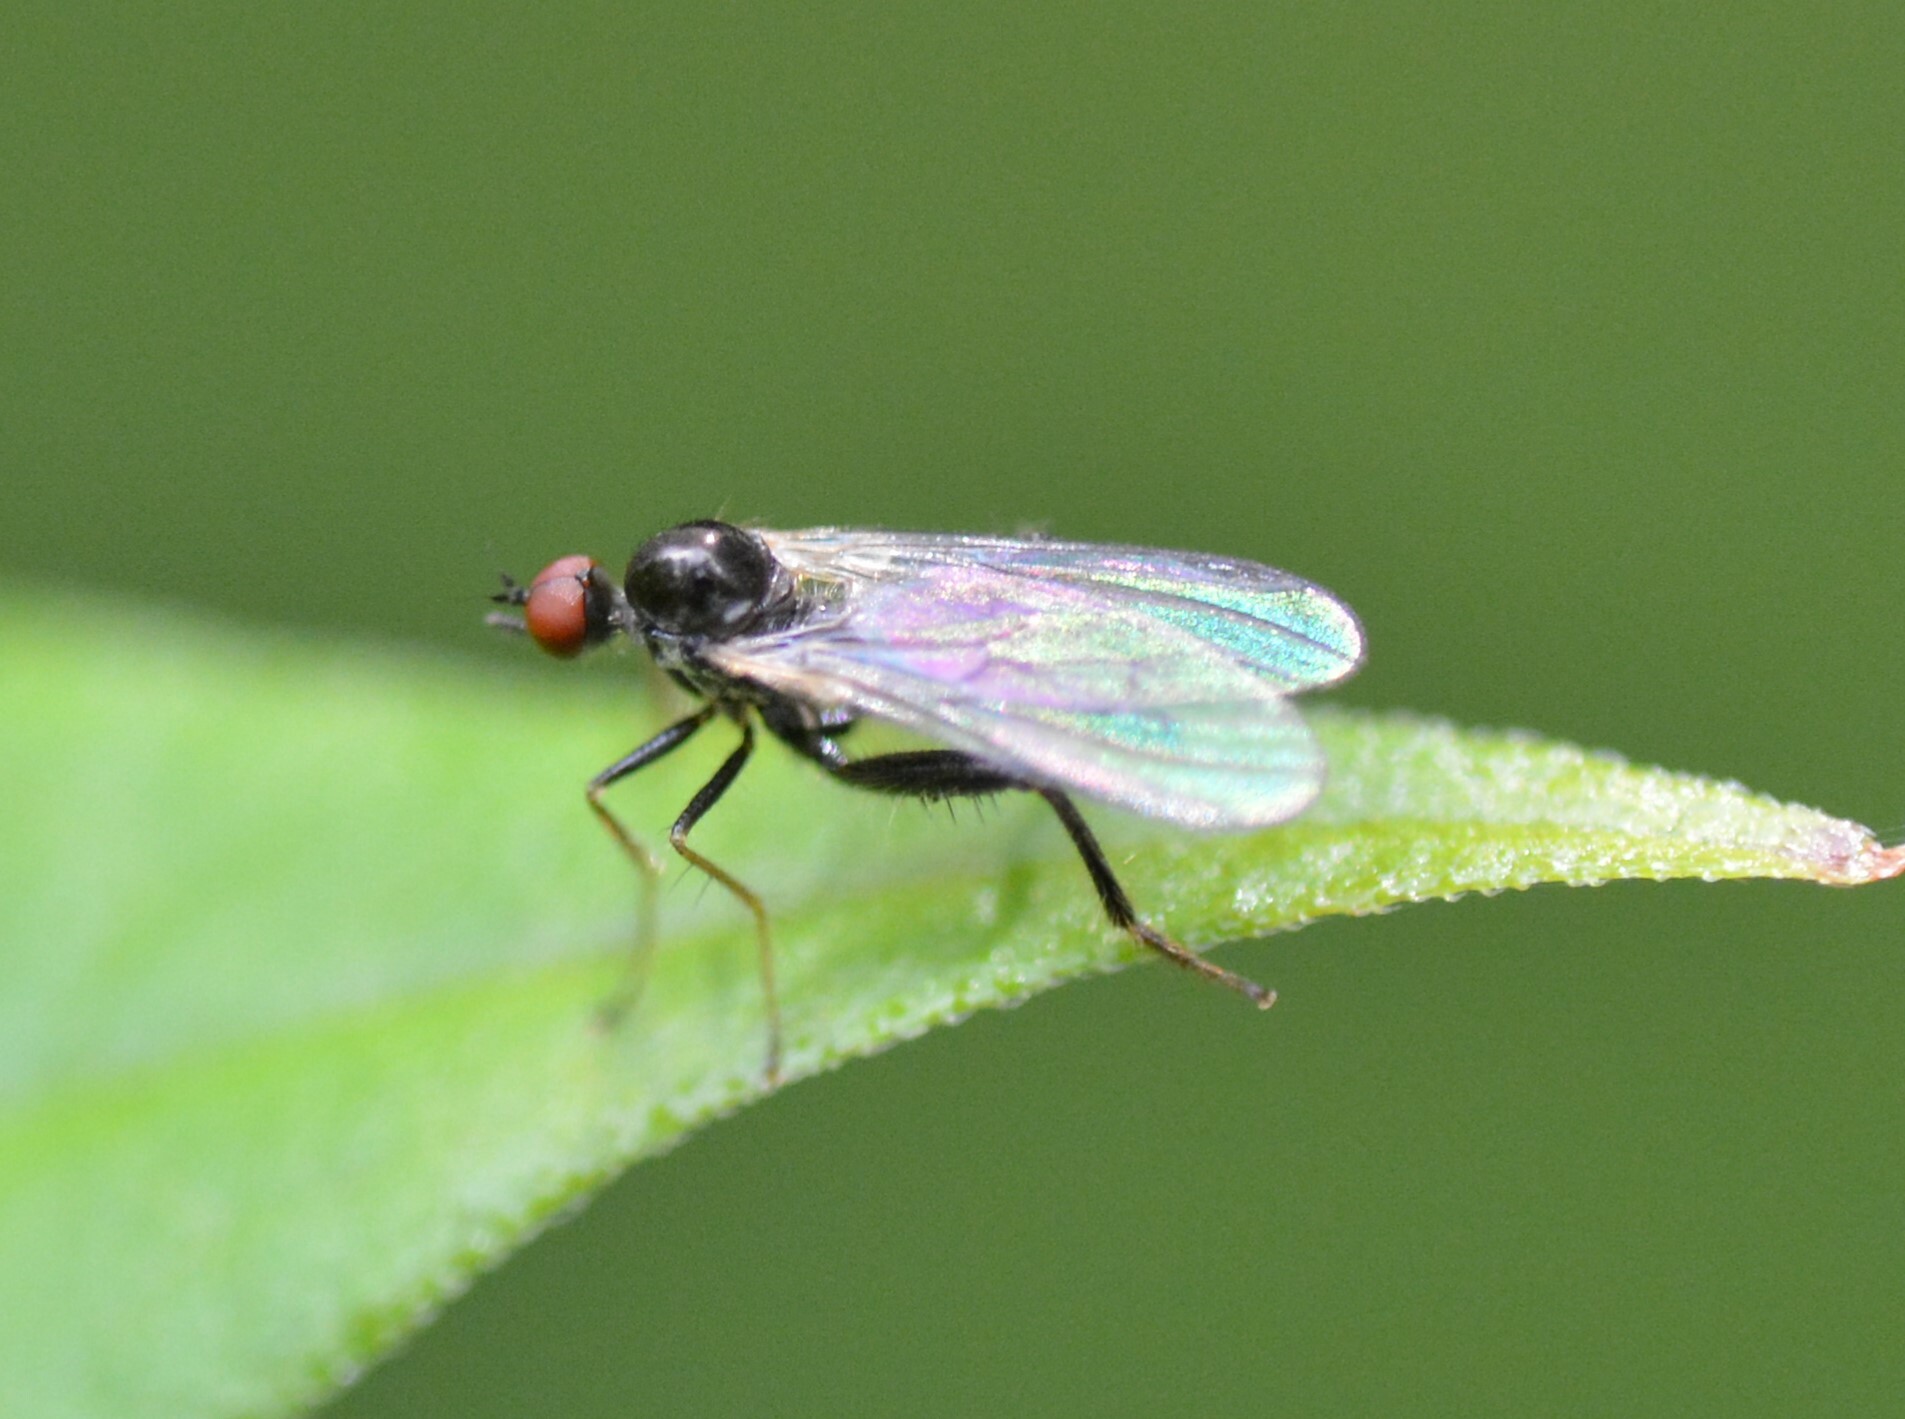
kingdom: Animalia
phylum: Arthropoda
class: Insecta
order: Diptera
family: Hybotidae
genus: Hybos
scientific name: Hybos reversus
